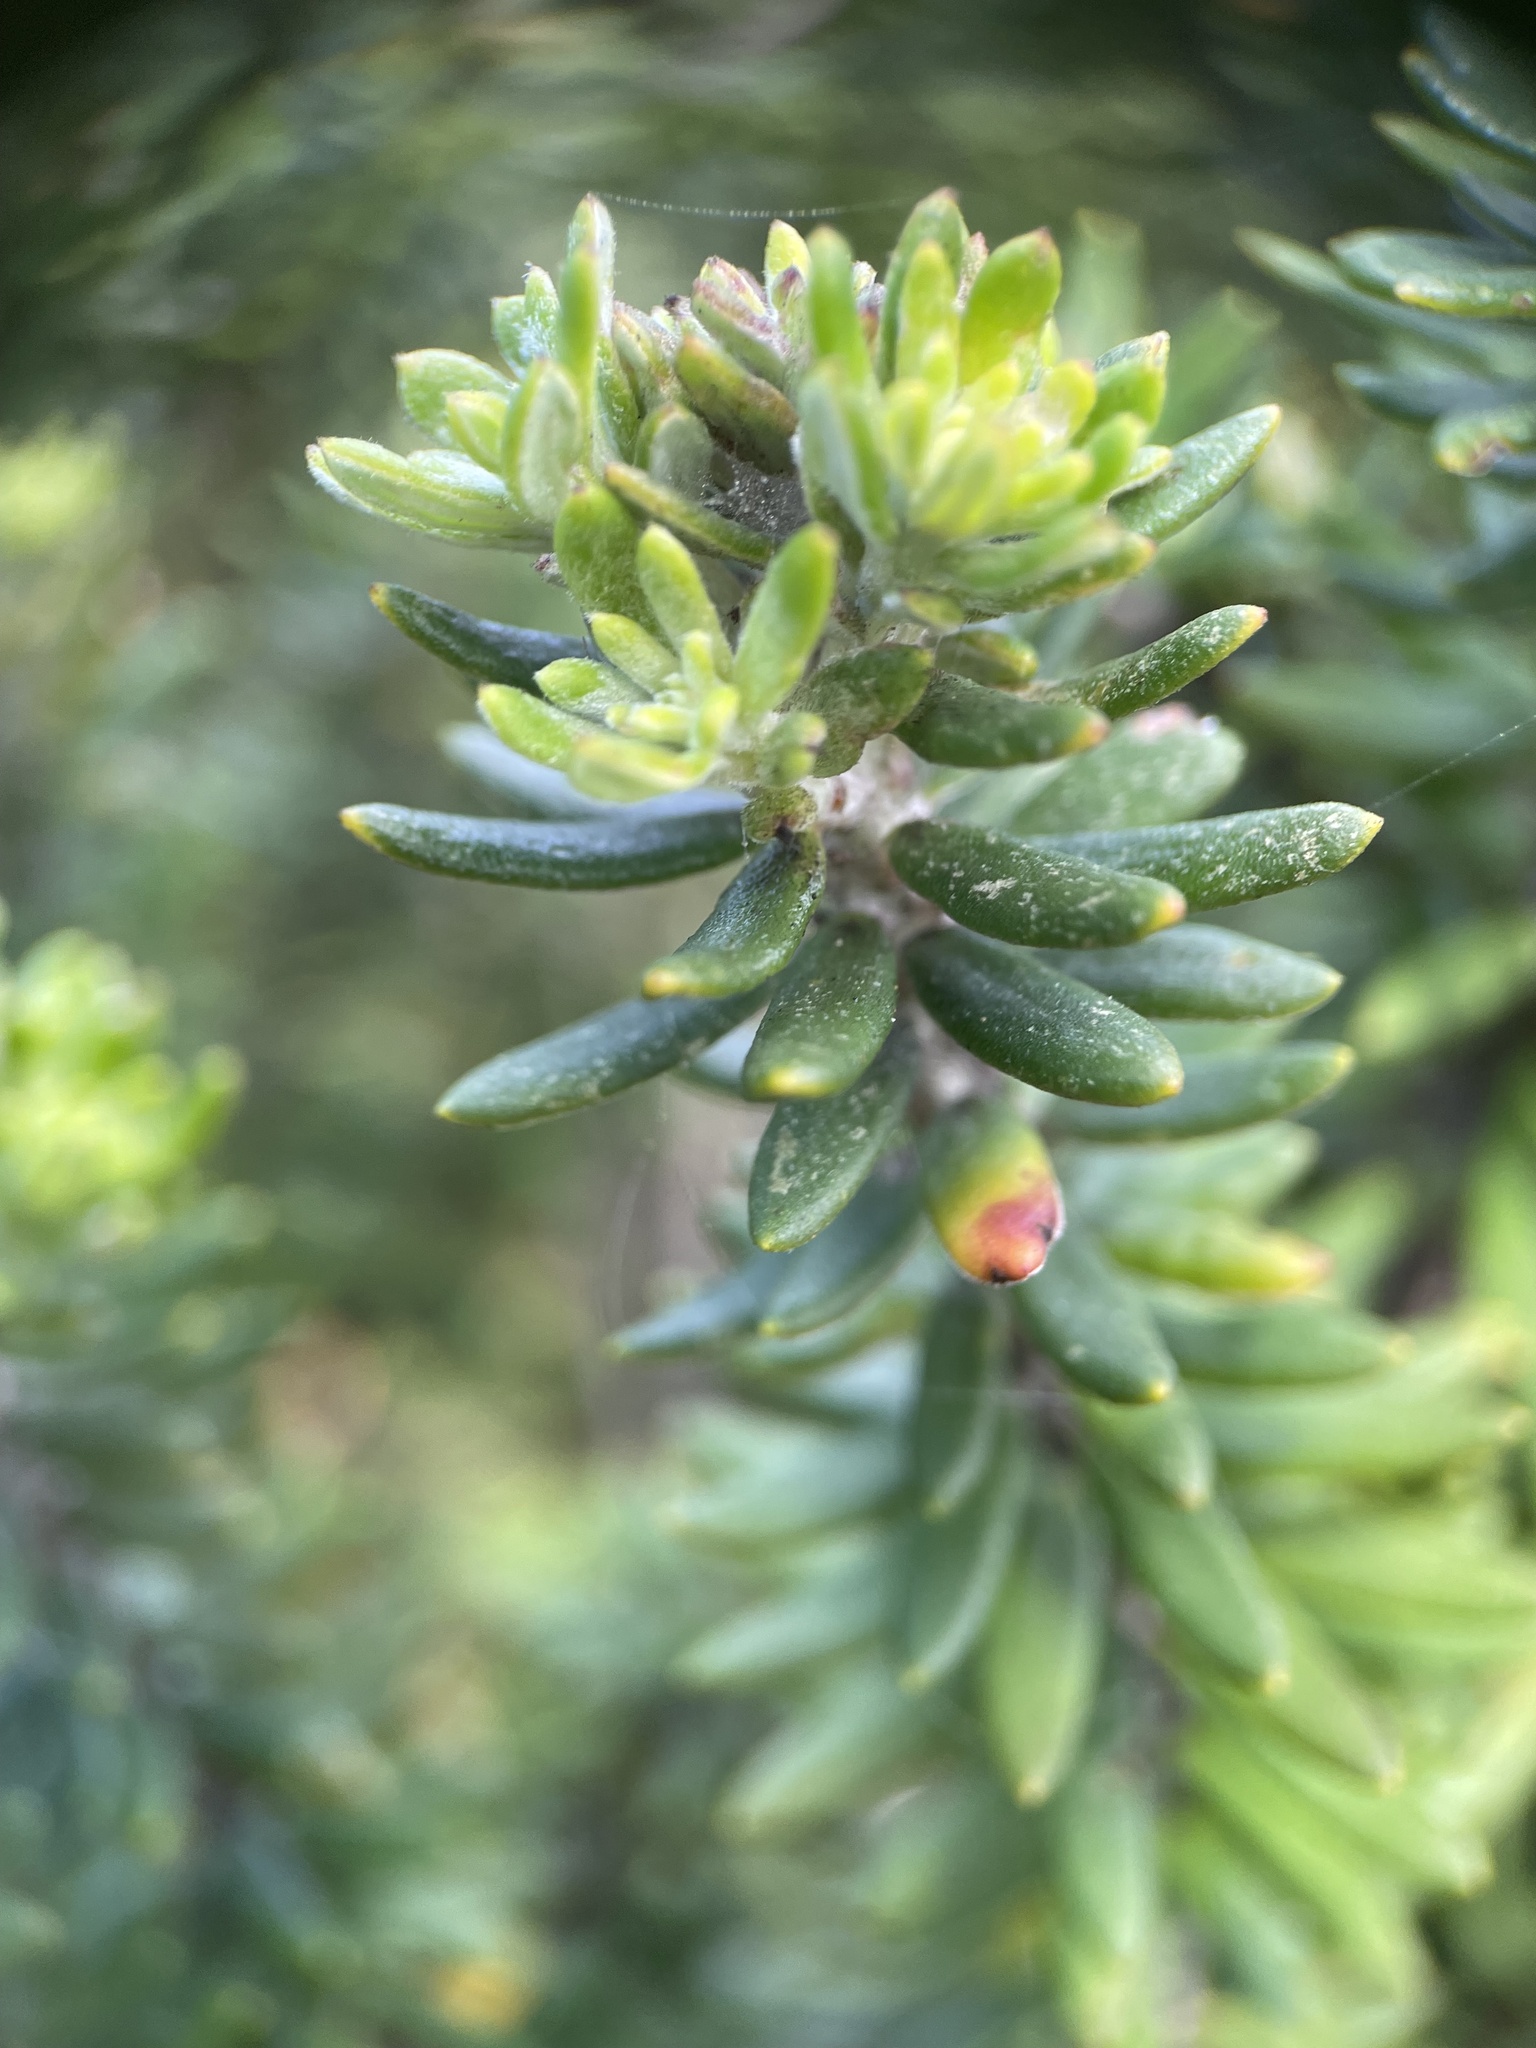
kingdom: Plantae
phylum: Tracheophyta
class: Magnoliopsida
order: Lamiales
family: Lamiaceae
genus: Westringia
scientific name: Westringia fruticosa
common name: Coastal-rosemary
